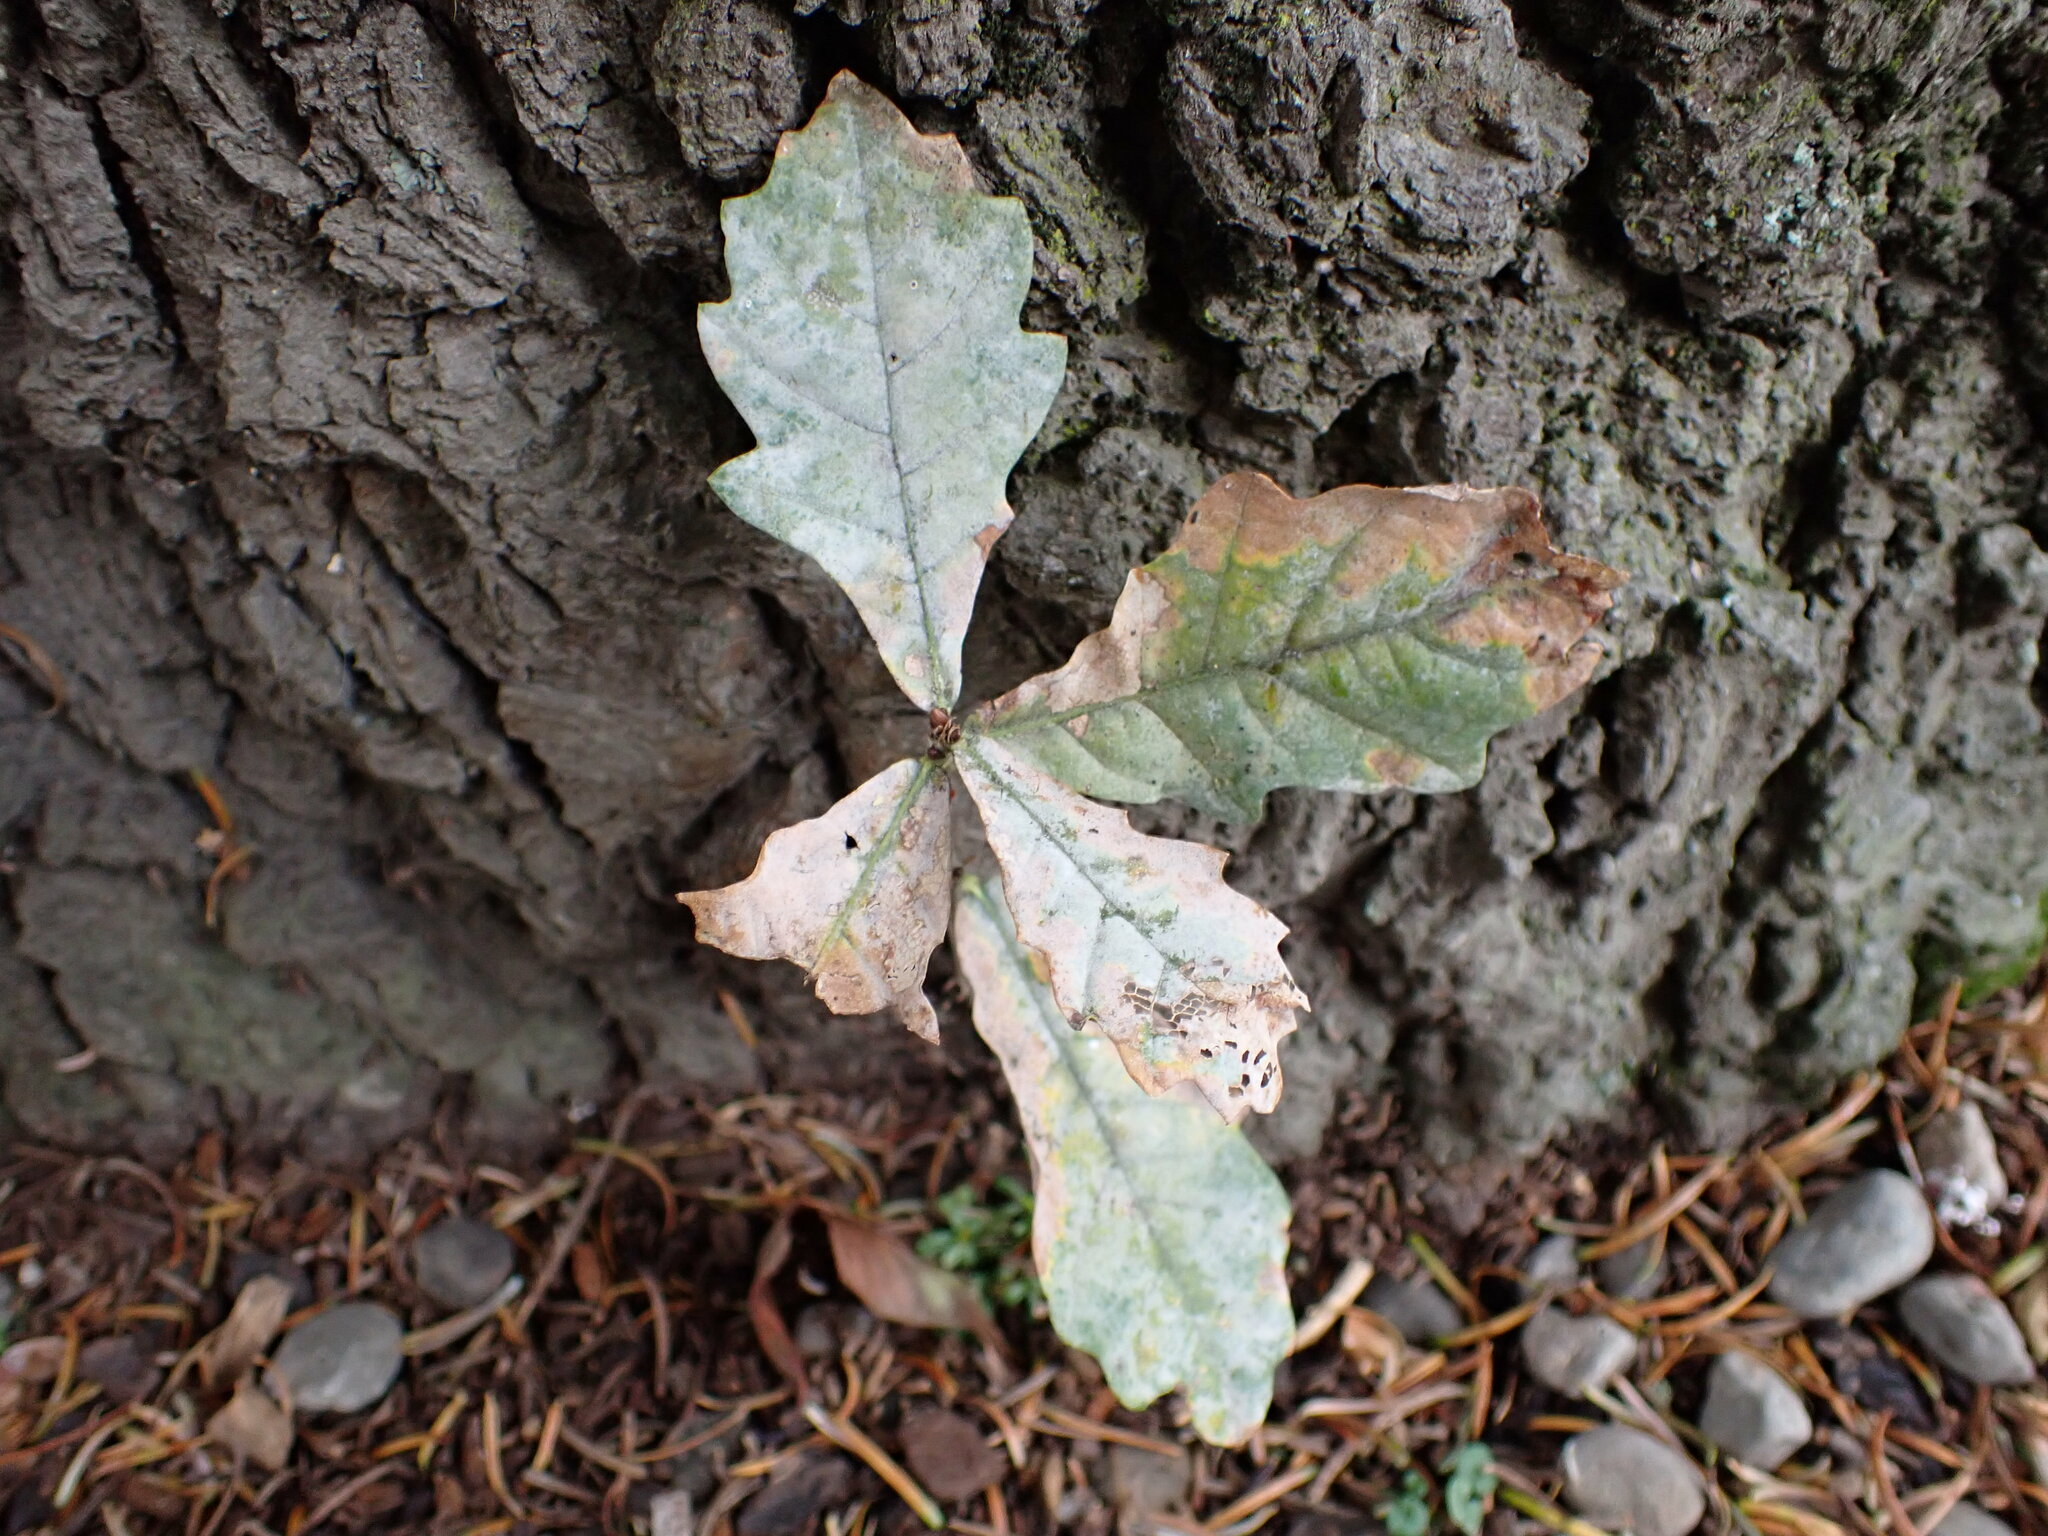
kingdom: Fungi
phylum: Ascomycota
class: Leotiomycetes
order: Helotiales
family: Erysiphaceae
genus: Erysiphe
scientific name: Erysiphe alphitoides
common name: Oak mildew
